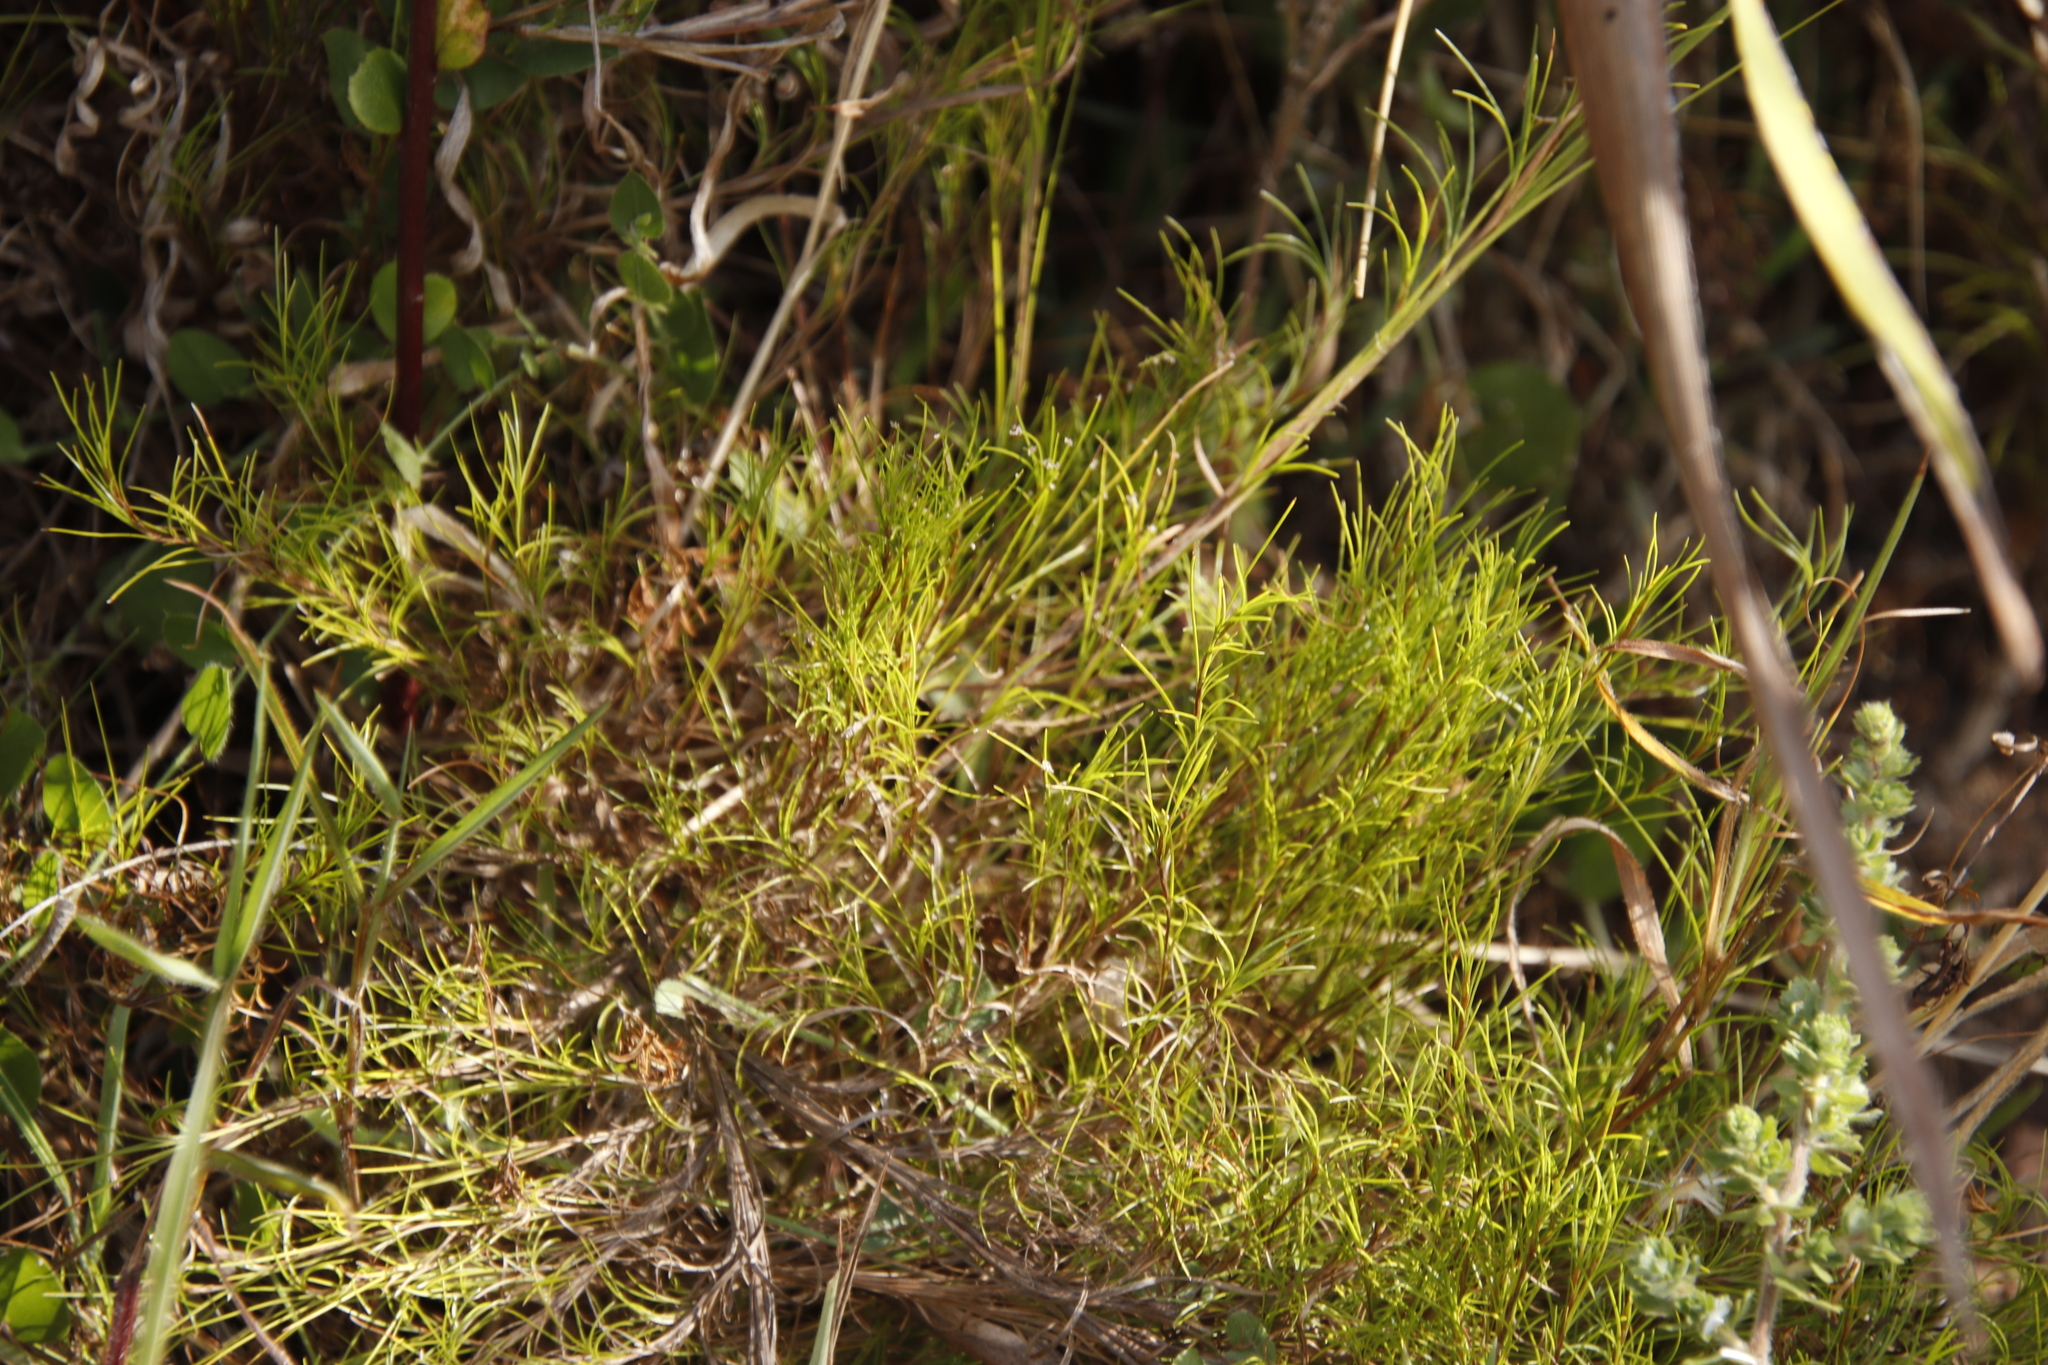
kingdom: Plantae
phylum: Tracheophyta
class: Liliopsida
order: Poales
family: Cyperaceae
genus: Ficinia
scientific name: Ficinia ramosissima
